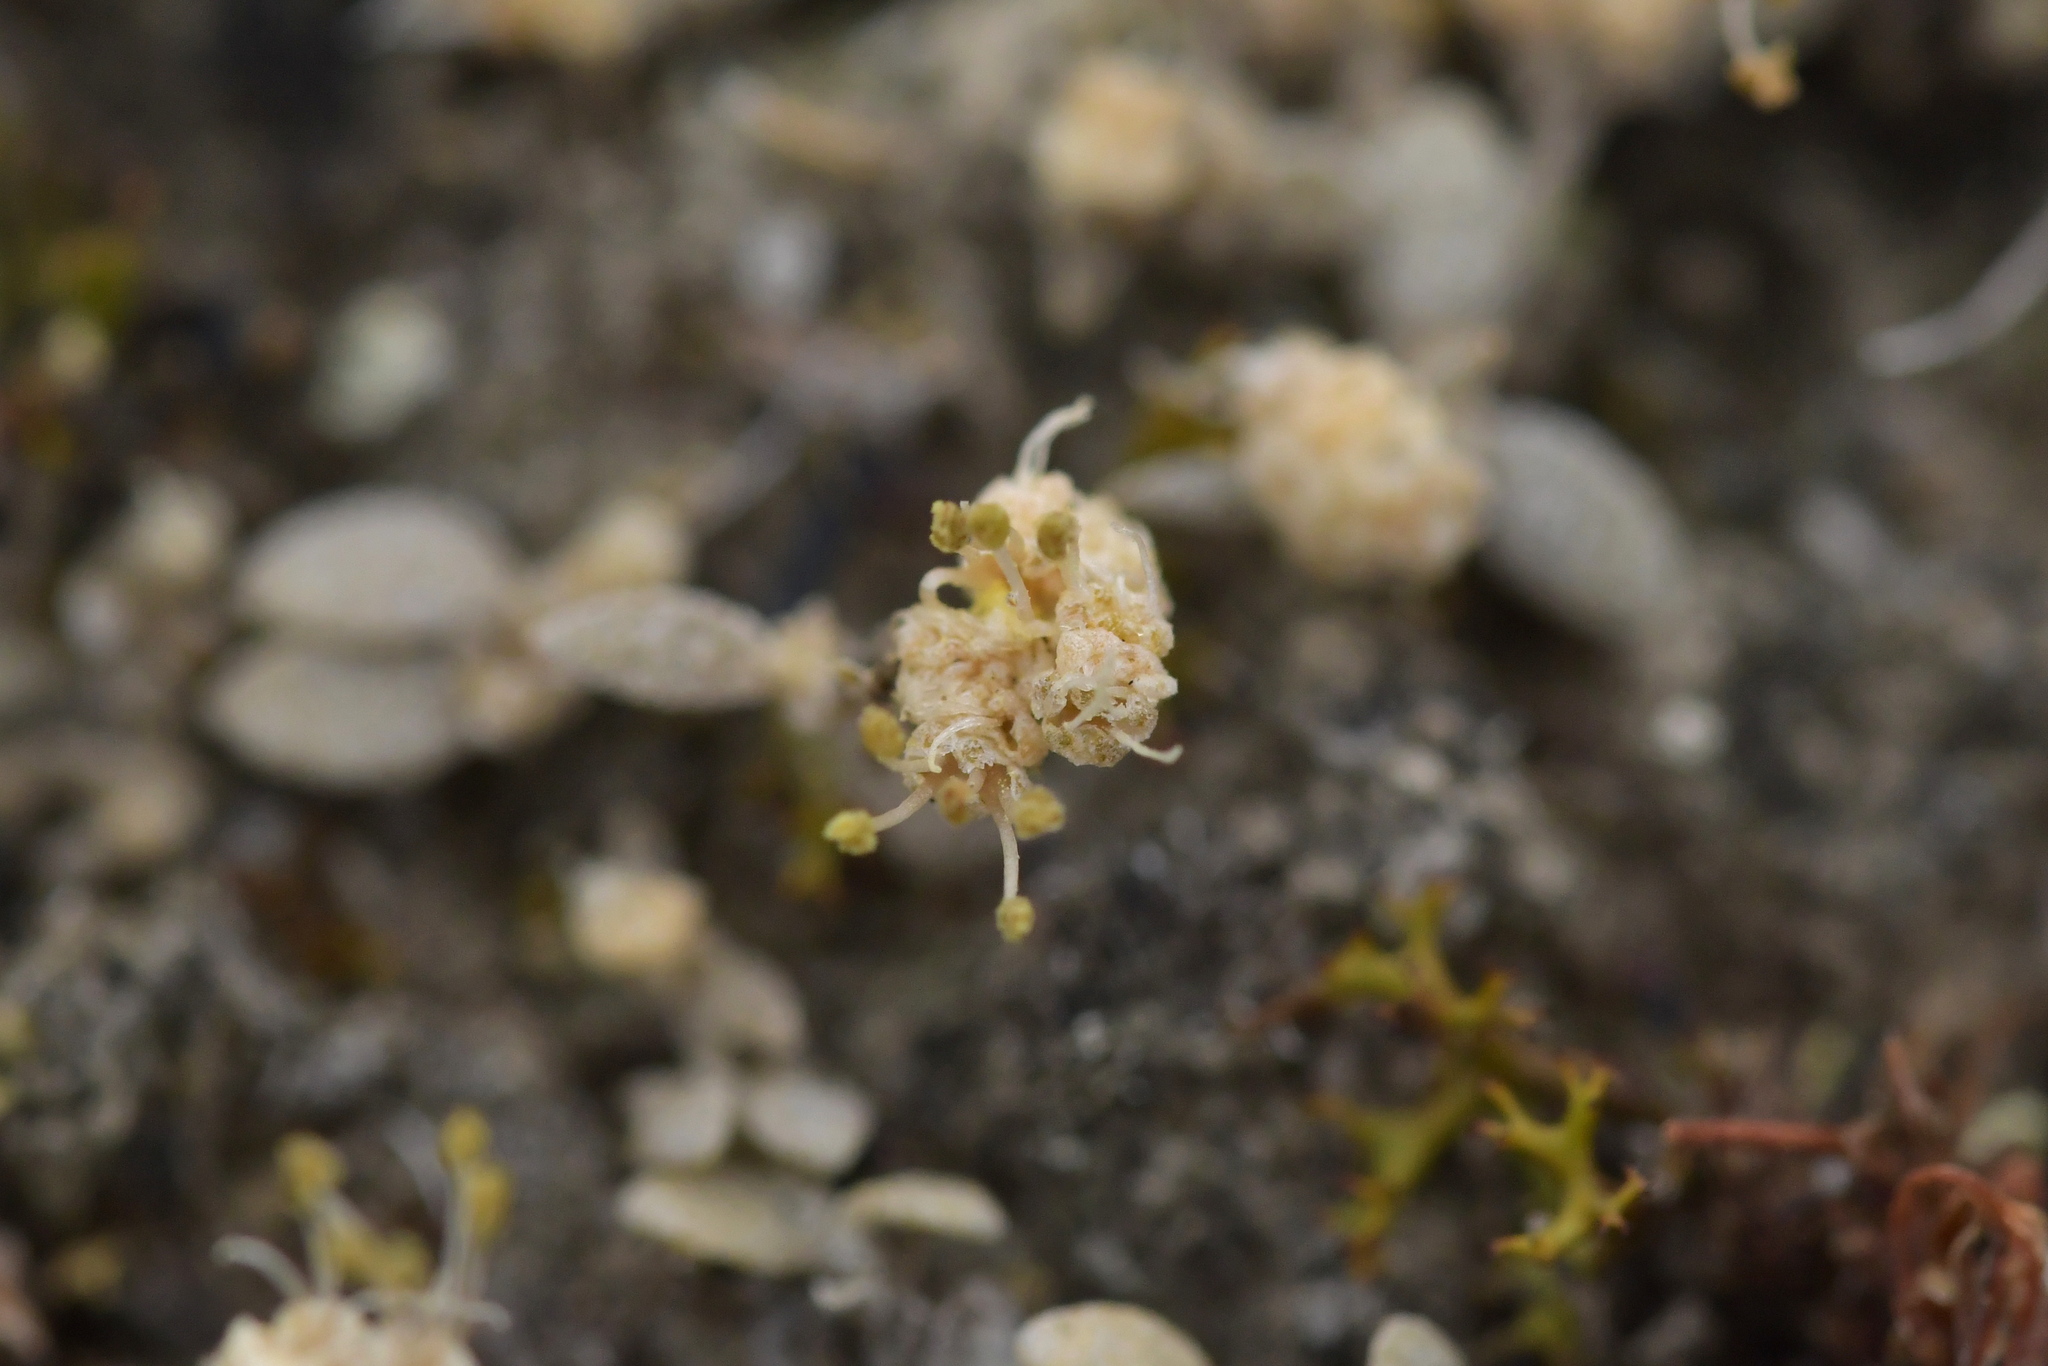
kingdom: Plantae
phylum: Tracheophyta
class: Magnoliopsida
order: Caryophyllales
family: Amaranthaceae
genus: Atriplex
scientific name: Atriplex buchananii
